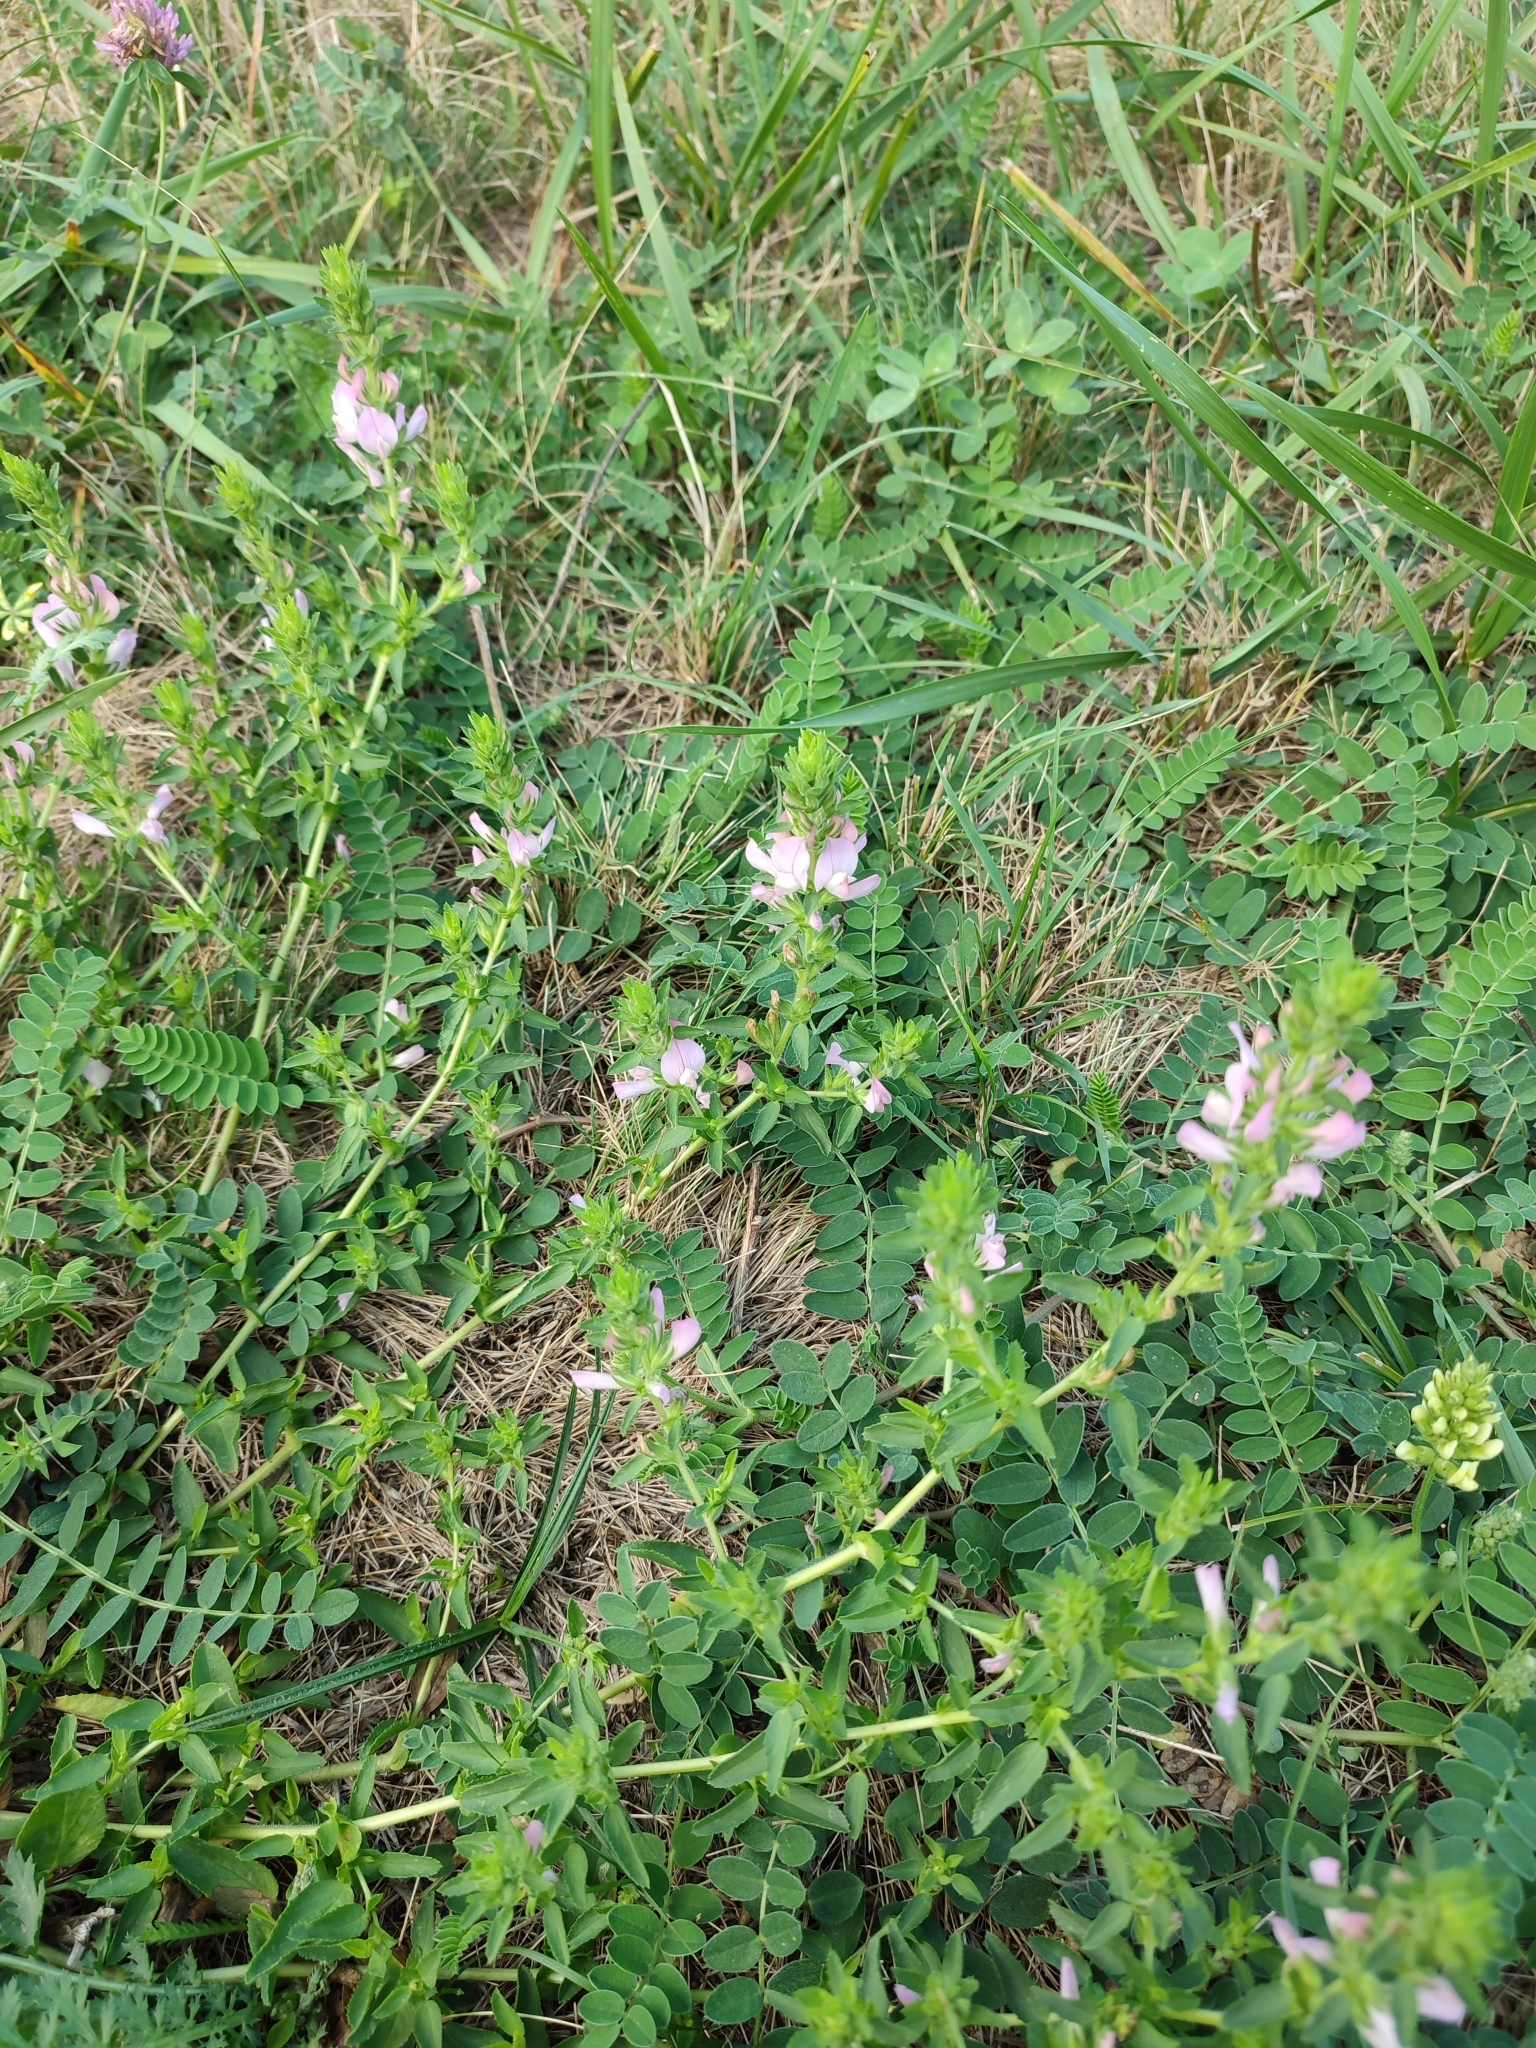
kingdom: Plantae
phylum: Tracheophyta
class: Magnoliopsida
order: Fabales
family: Fabaceae
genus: Ononis
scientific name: Ononis arvensis
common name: Field restharrow
